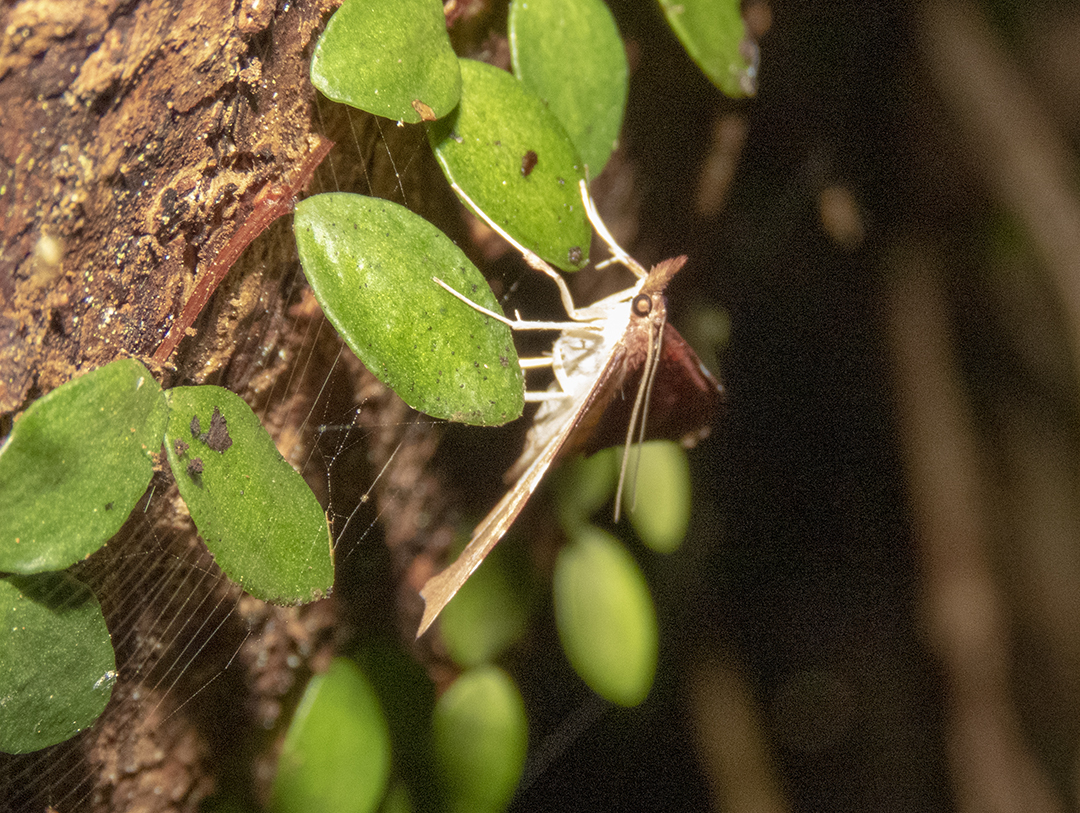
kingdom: Animalia
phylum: Arthropoda
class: Insecta
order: Lepidoptera
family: Crambidae
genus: Deana
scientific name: Deana hybreasalis
